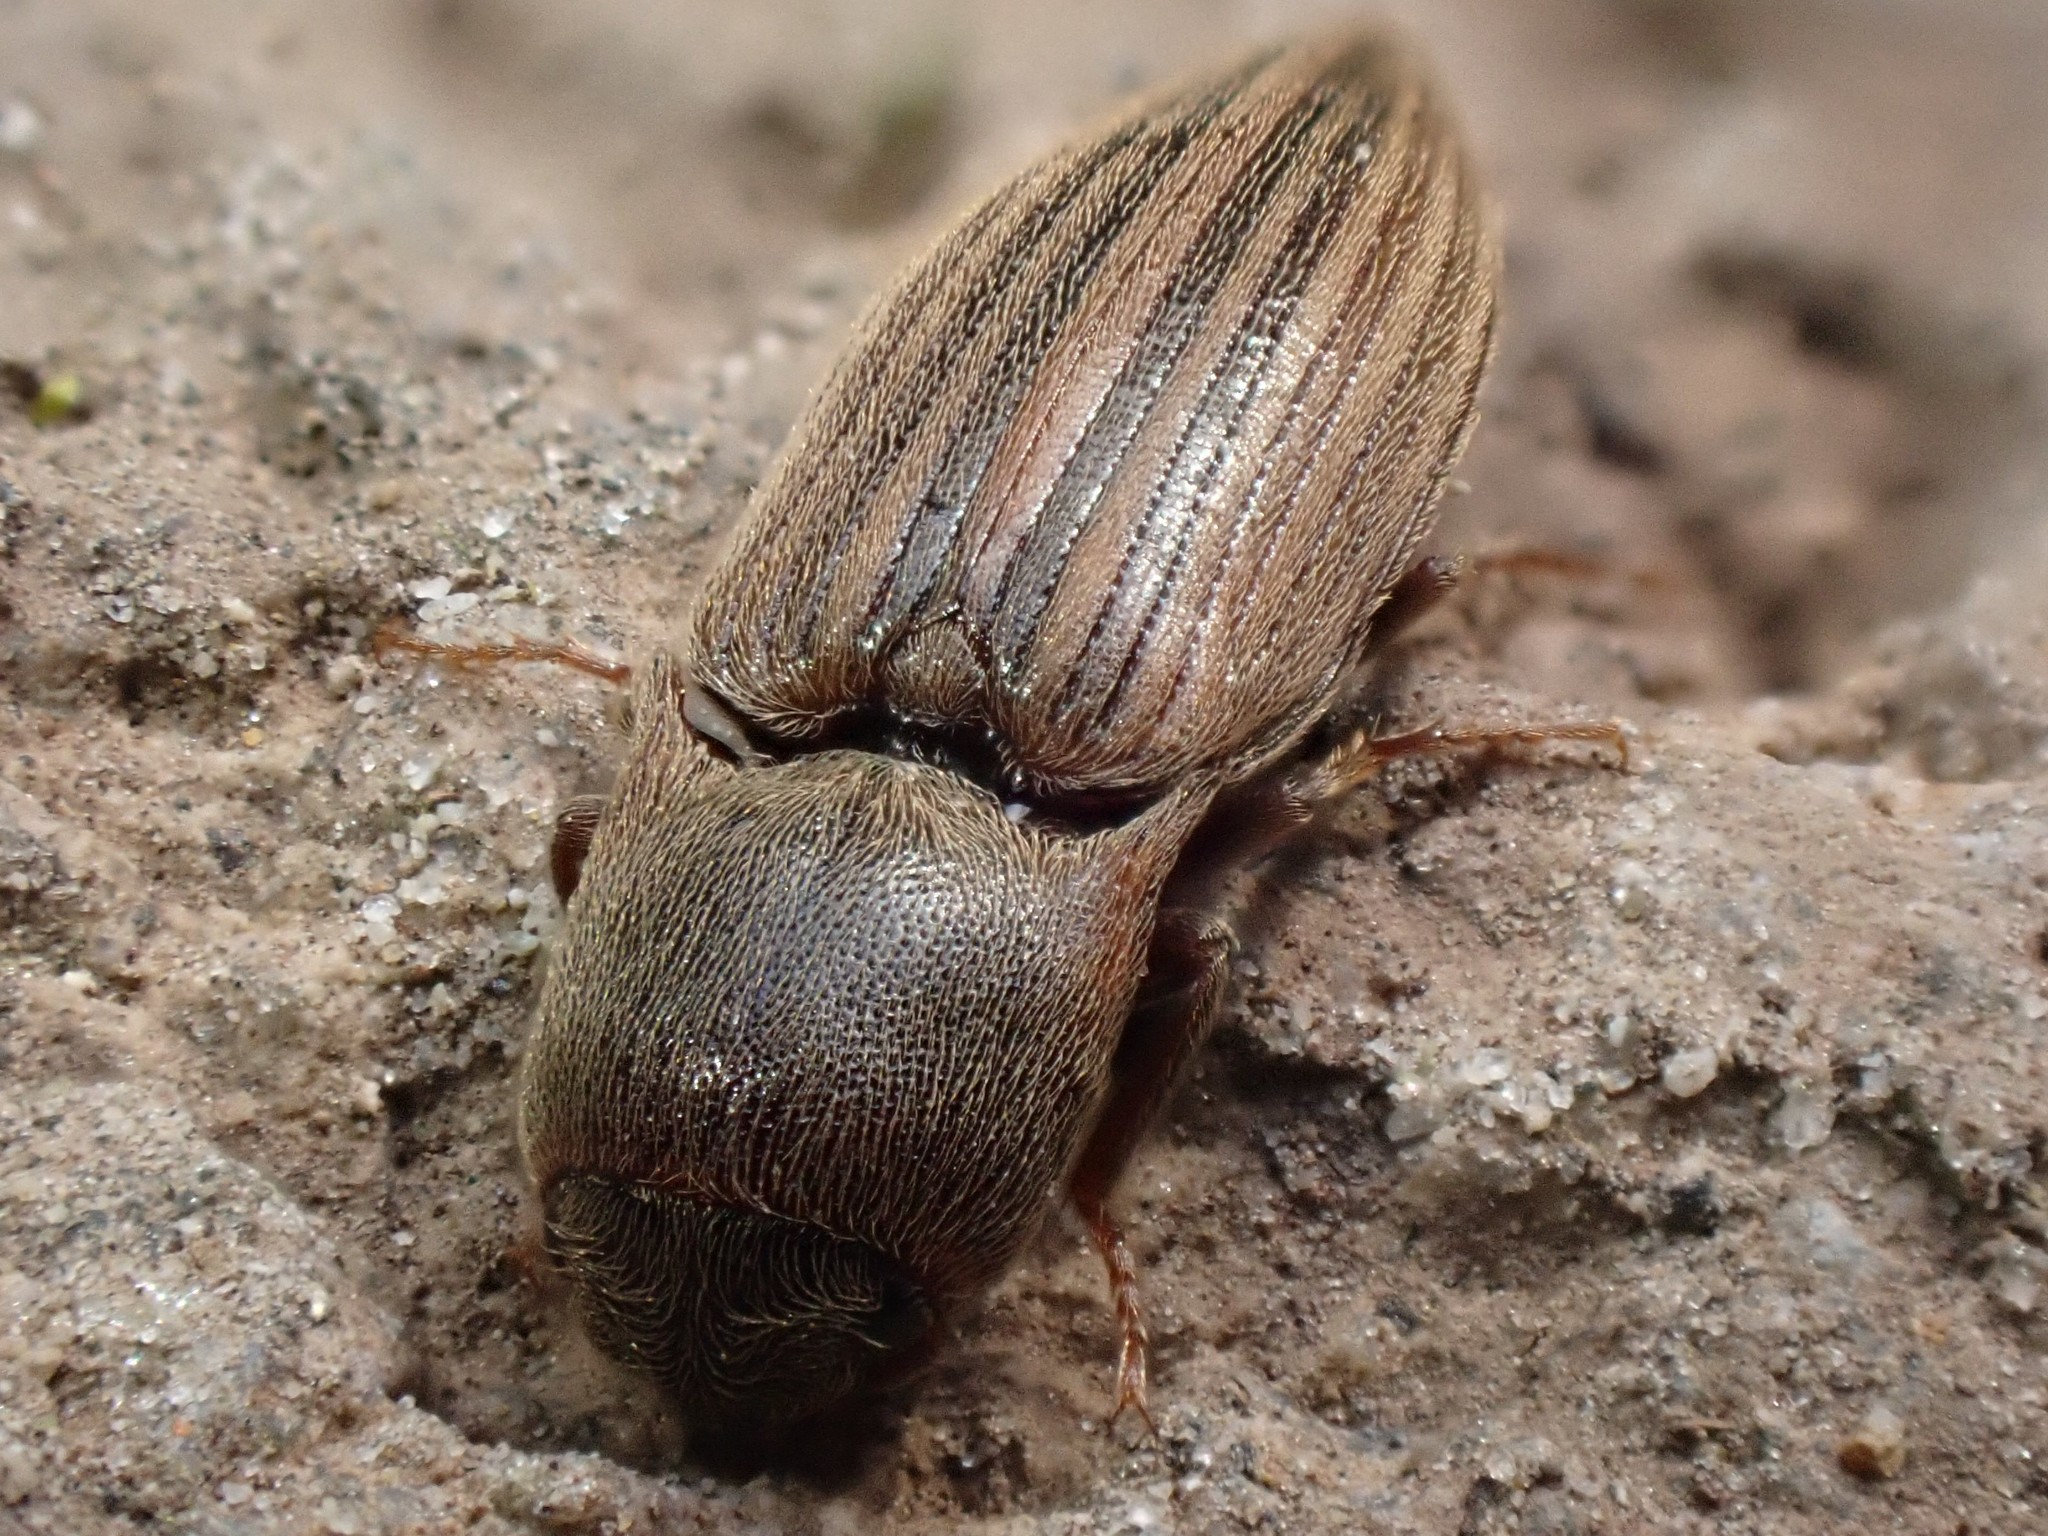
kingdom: Animalia
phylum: Arthropoda
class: Insecta
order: Coleoptera
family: Elateridae
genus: Agriotes
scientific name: Agriotes lineatus
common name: Lined click beetle
